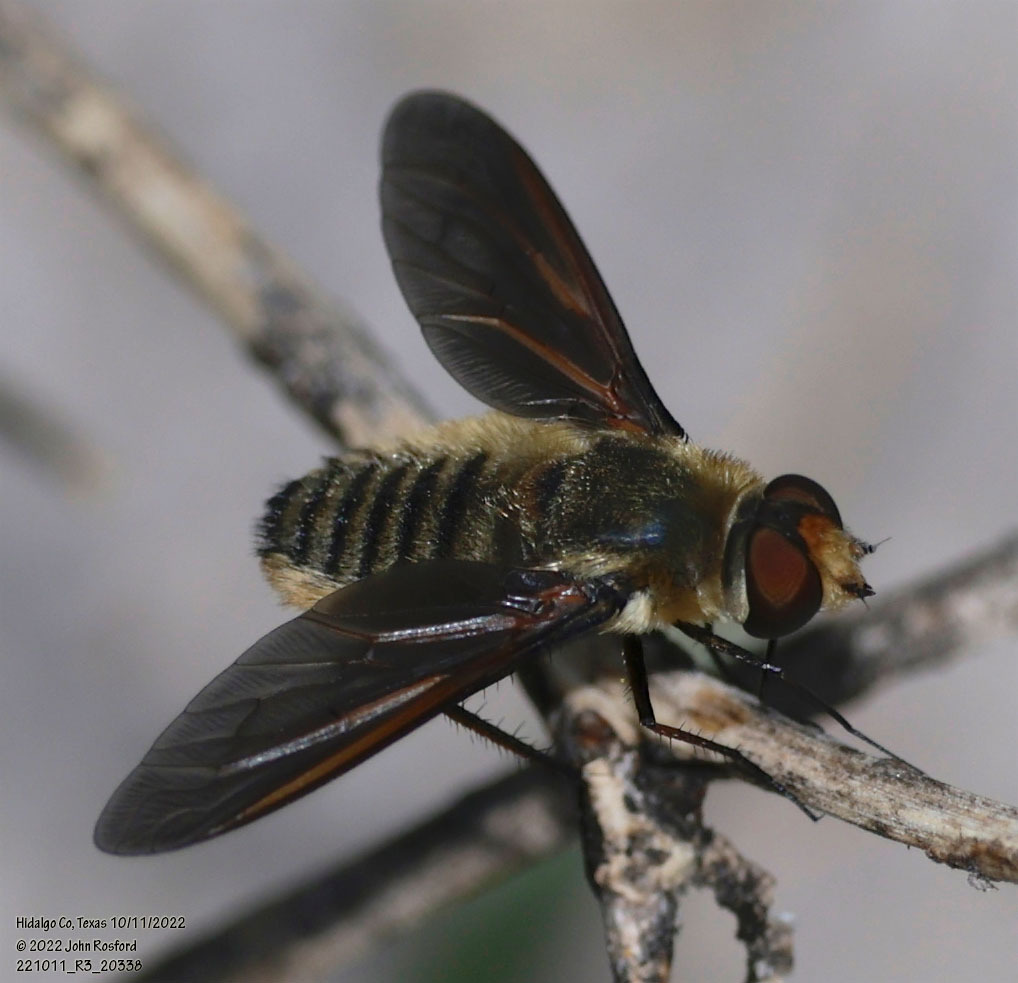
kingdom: Animalia
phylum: Arthropoda
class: Insecta
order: Diptera
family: Bombyliidae
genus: Poecilanthrax
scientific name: Poecilanthrax lucifer
